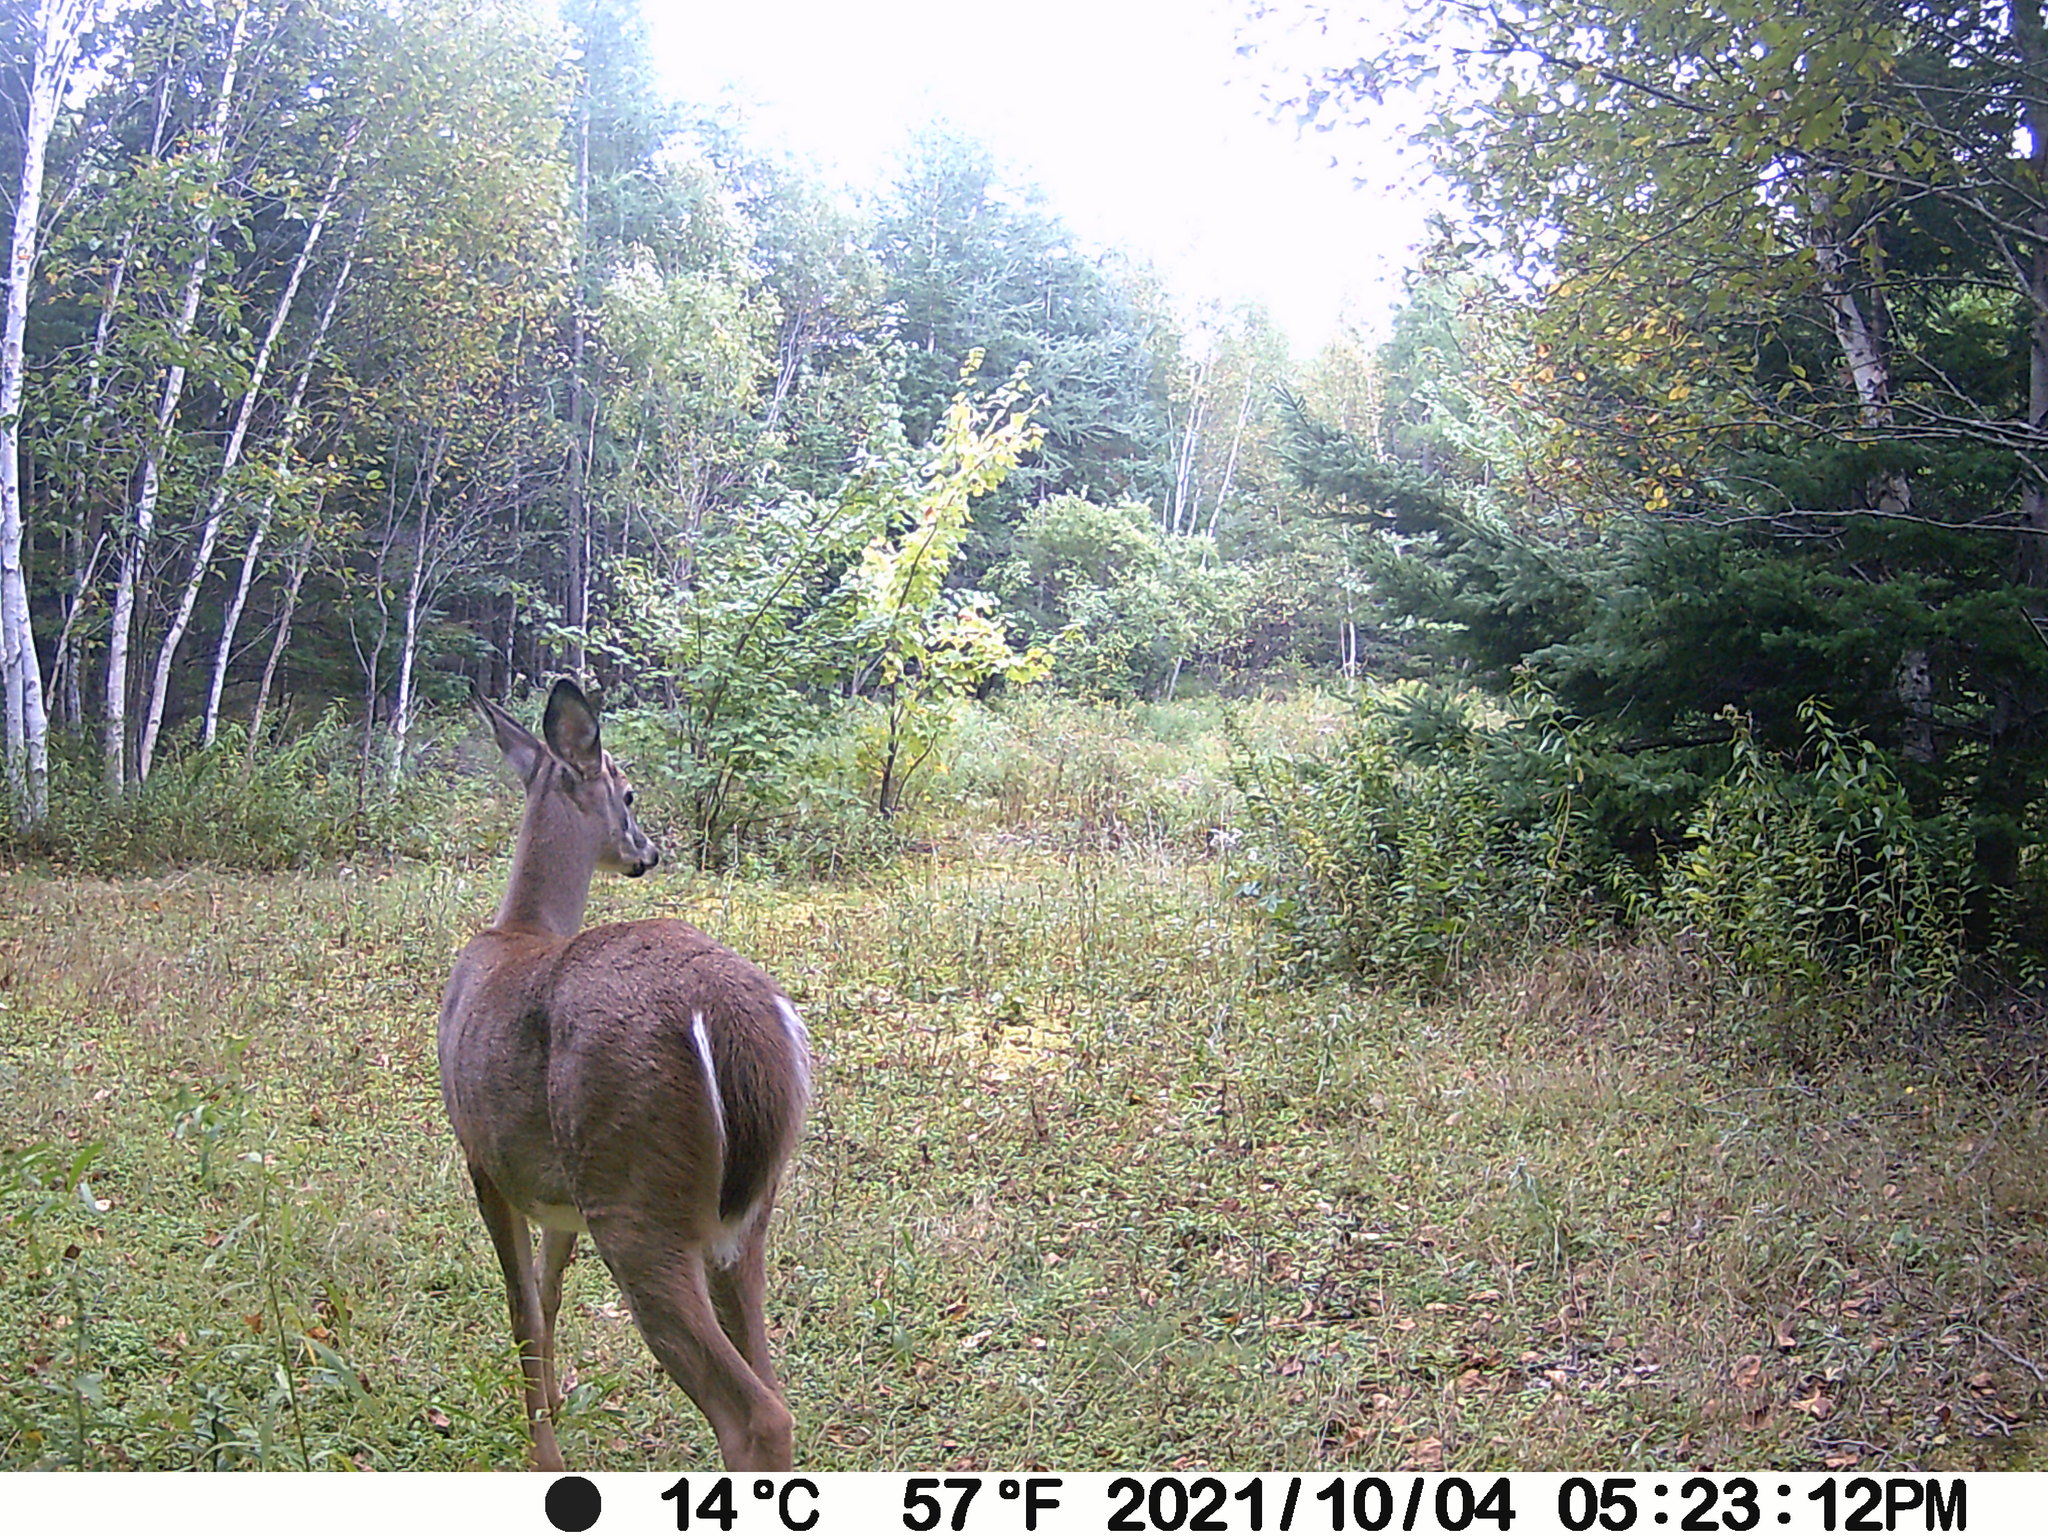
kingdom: Animalia
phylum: Chordata
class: Mammalia
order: Artiodactyla
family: Cervidae
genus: Odocoileus
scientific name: Odocoileus virginianus
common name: White-tailed deer
